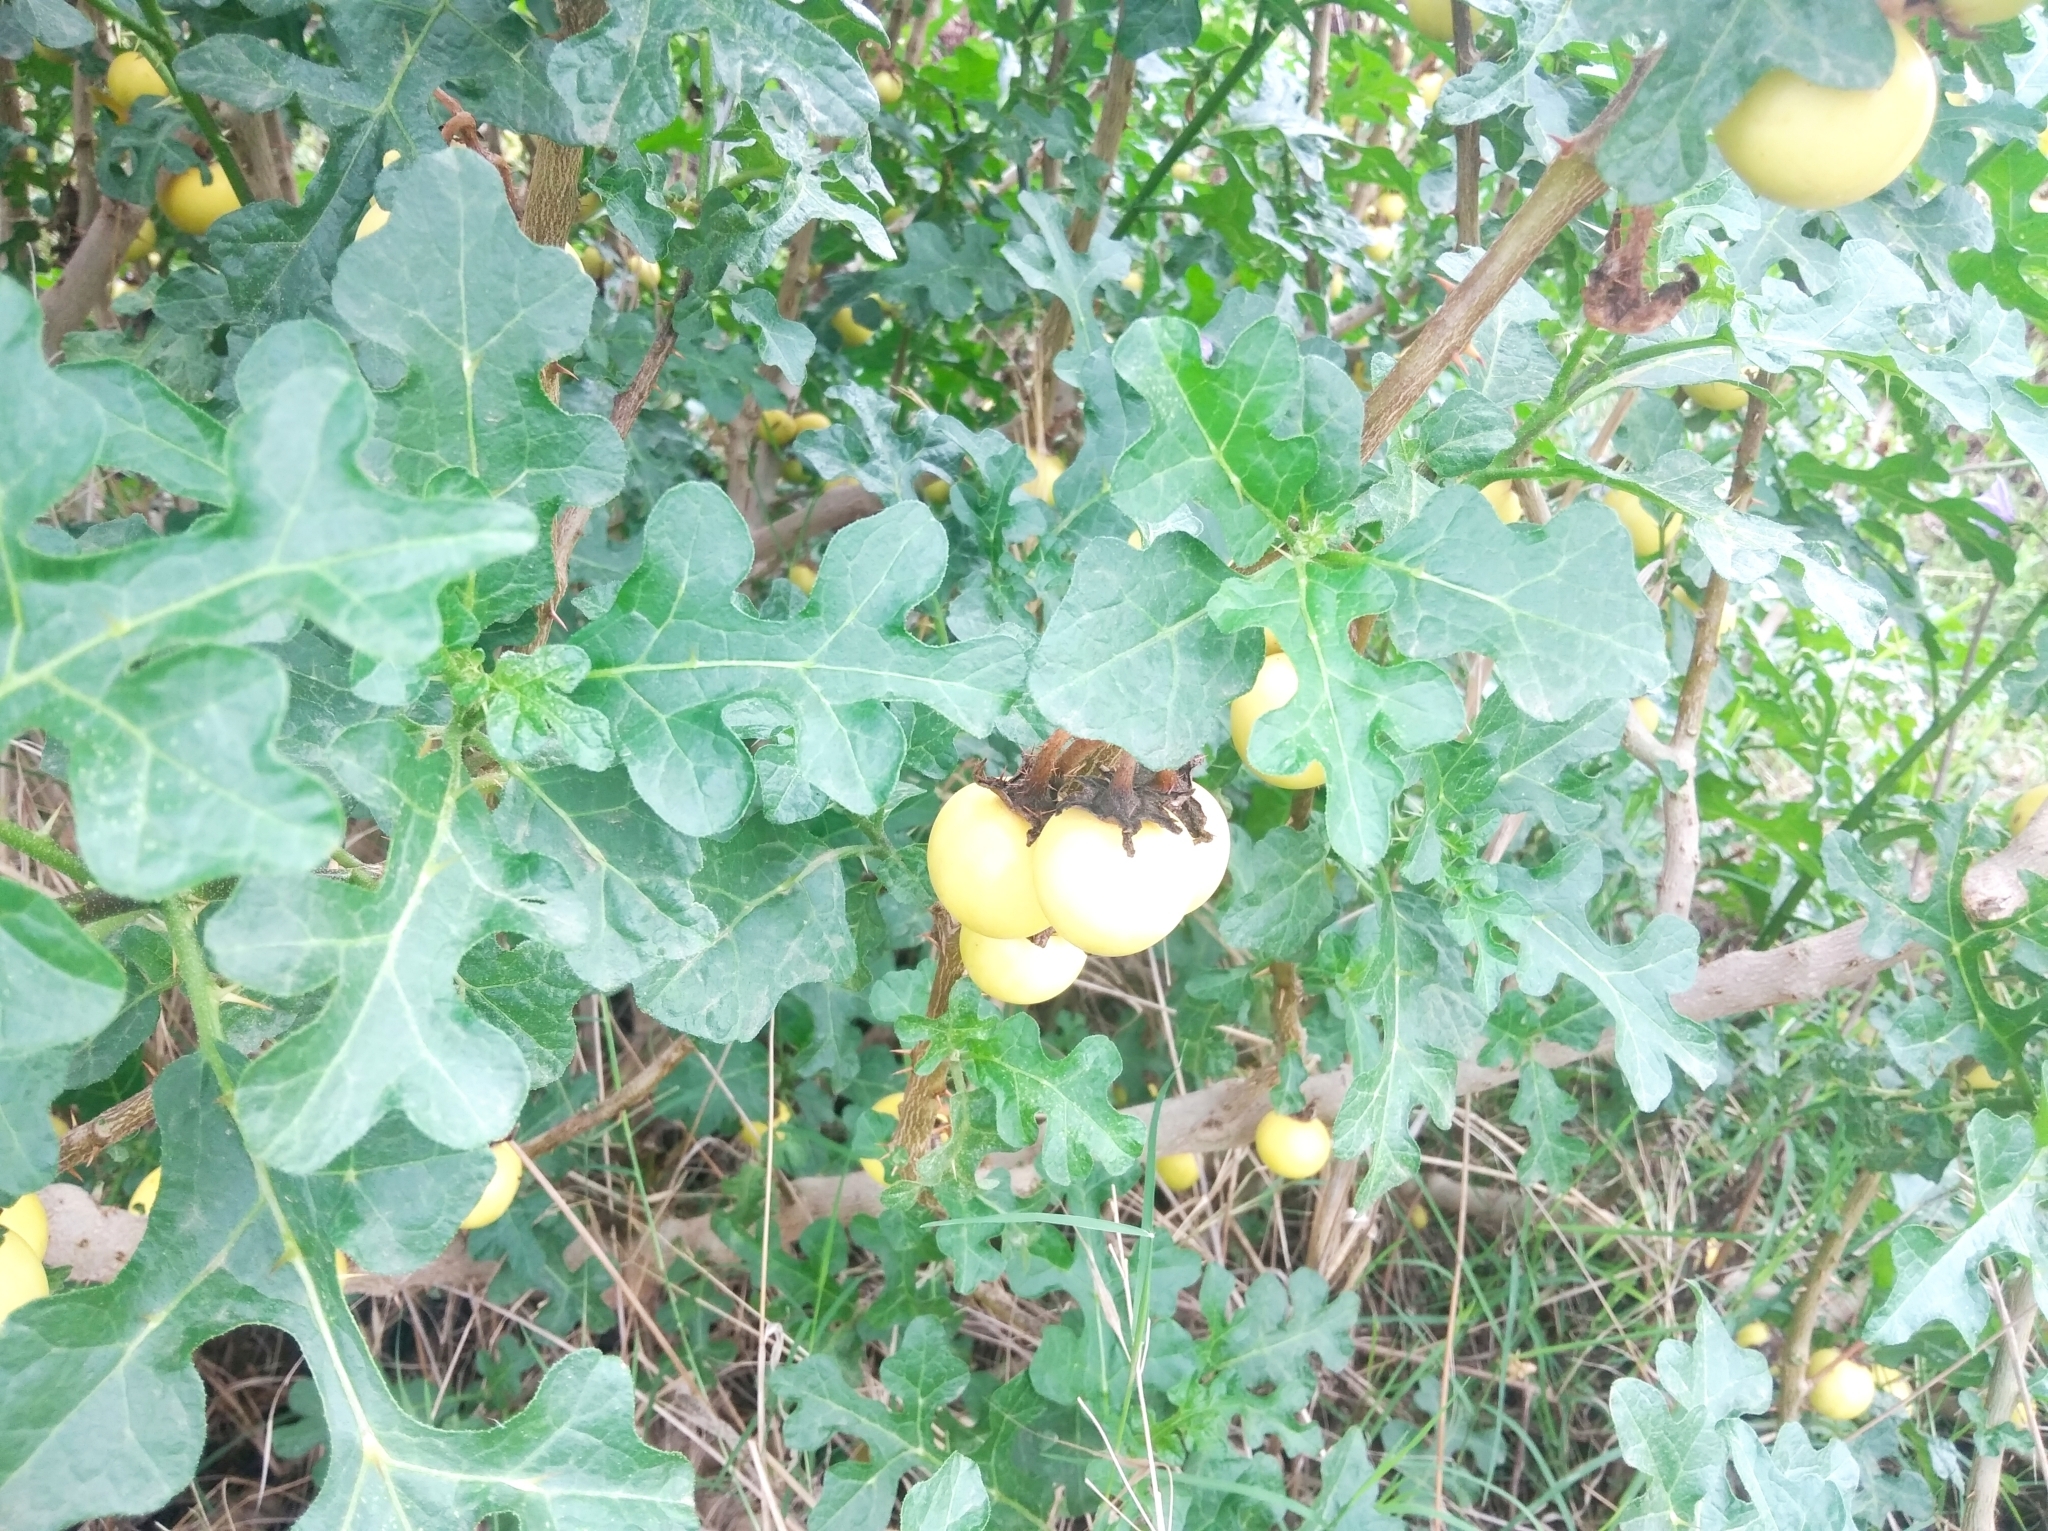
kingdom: Plantae
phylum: Tracheophyta
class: Magnoliopsida
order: Solanales
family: Solanaceae
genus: Solanum
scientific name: Solanum linnaeanum
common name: Nightshade
